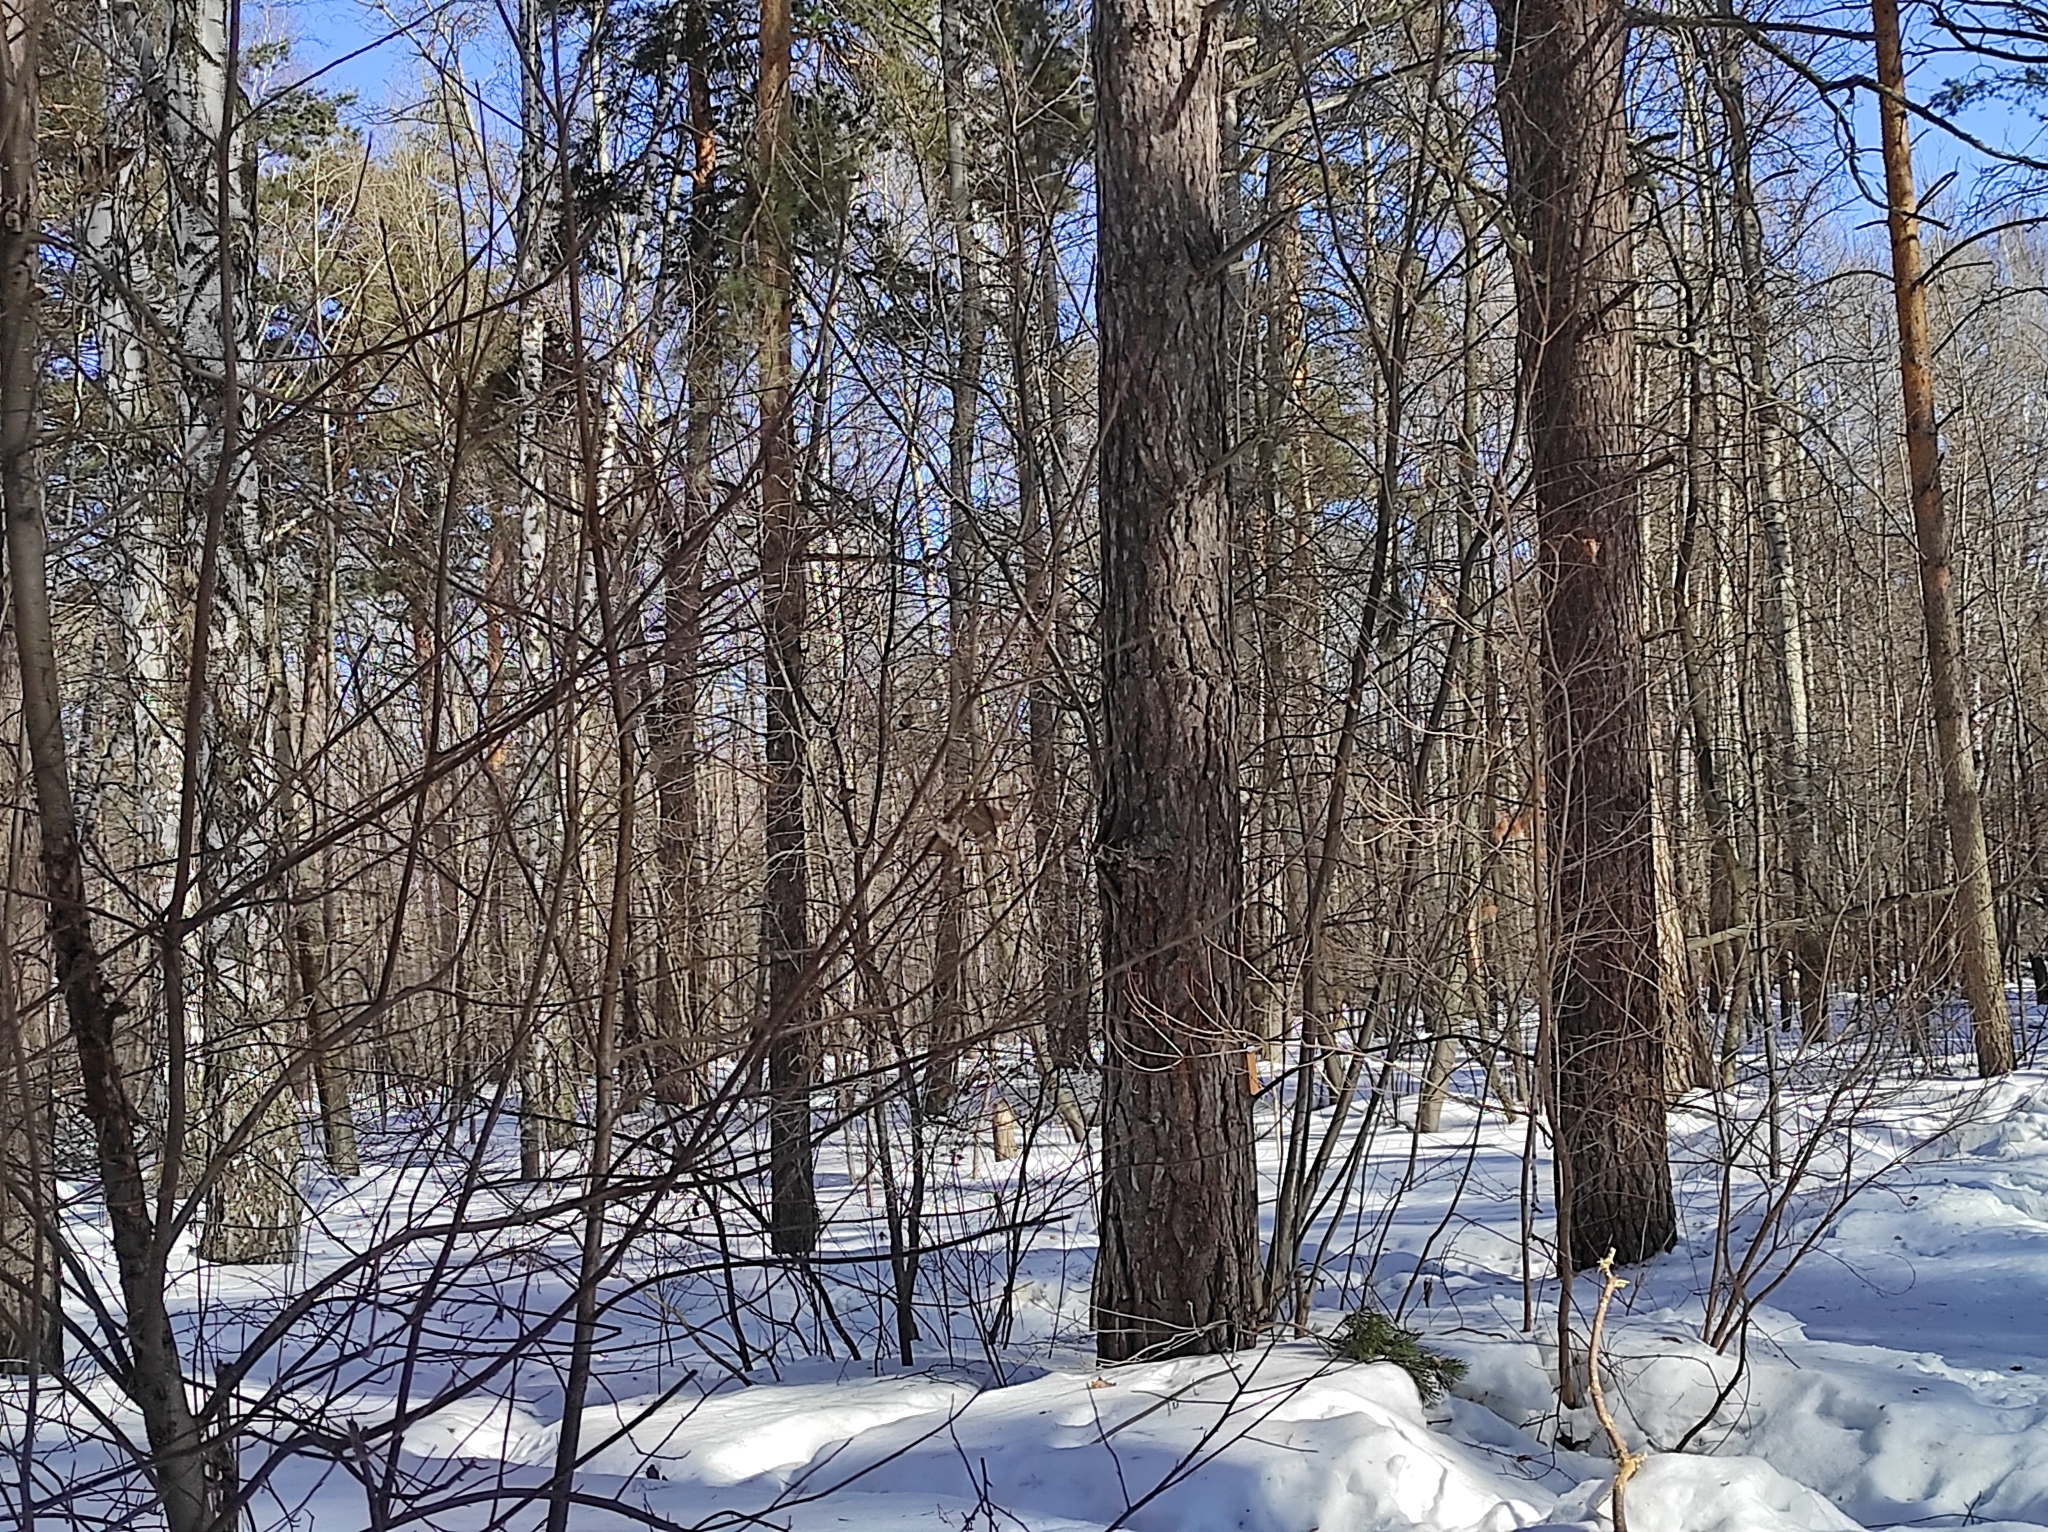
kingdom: Plantae
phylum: Tracheophyta
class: Pinopsida
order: Pinales
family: Pinaceae
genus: Pinus
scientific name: Pinus sylvestris
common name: Scots pine
